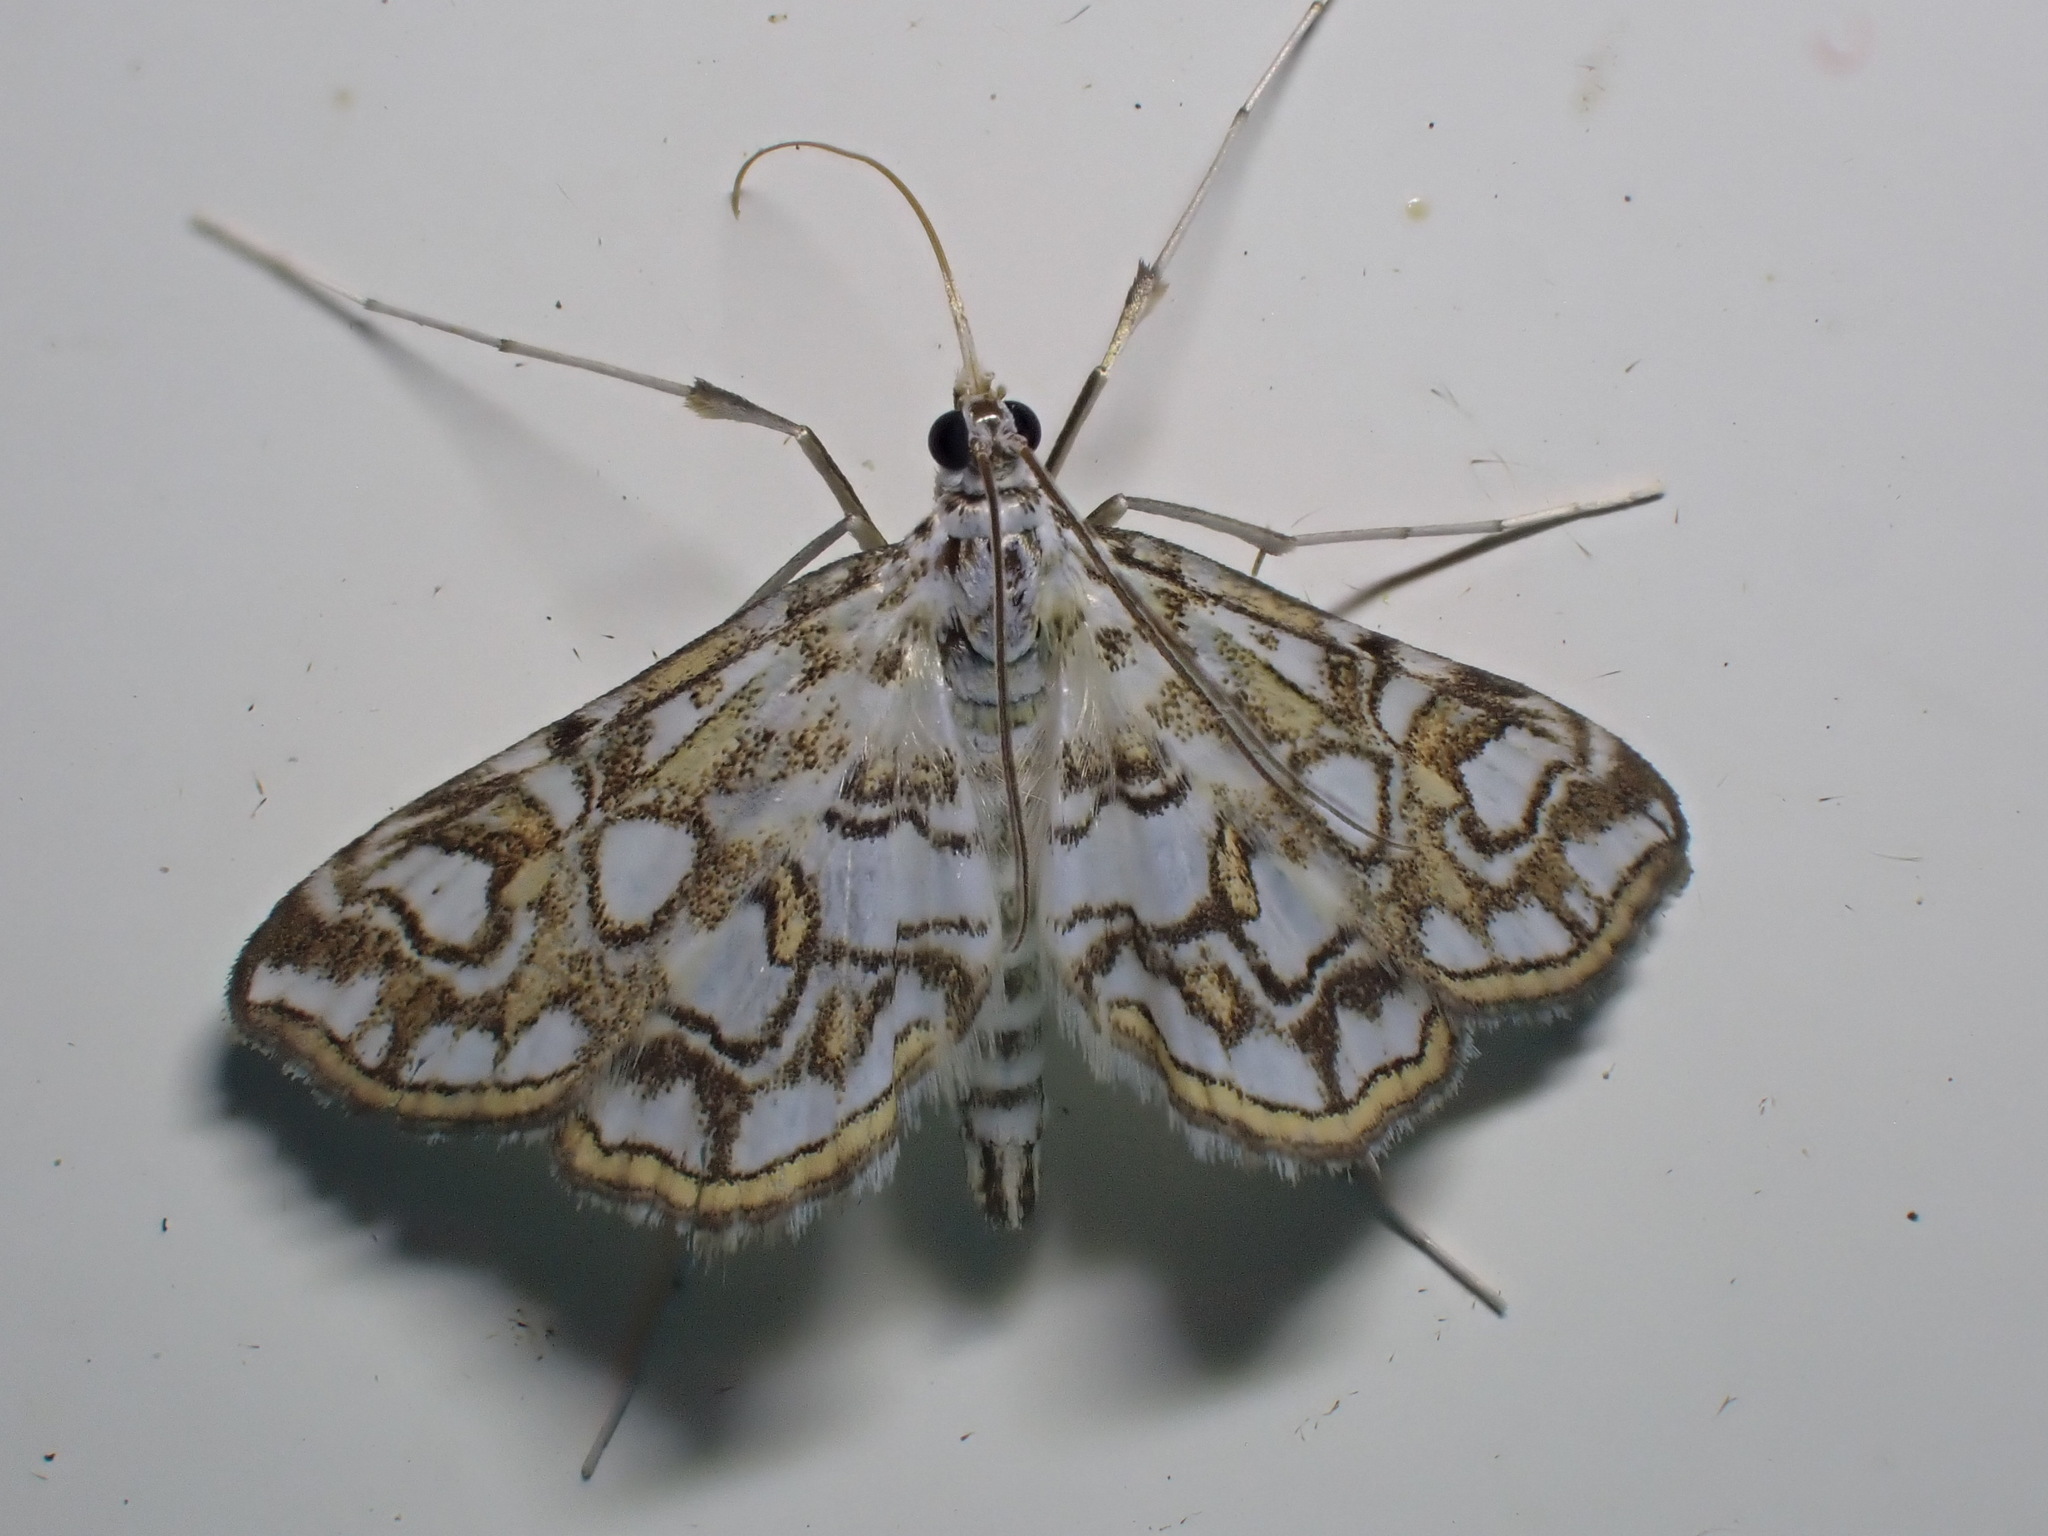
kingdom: Animalia
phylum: Arthropoda
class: Insecta
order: Lepidoptera
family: Crambidae
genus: Elophila
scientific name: Elophila nymphaeata
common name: Brown china-mark
